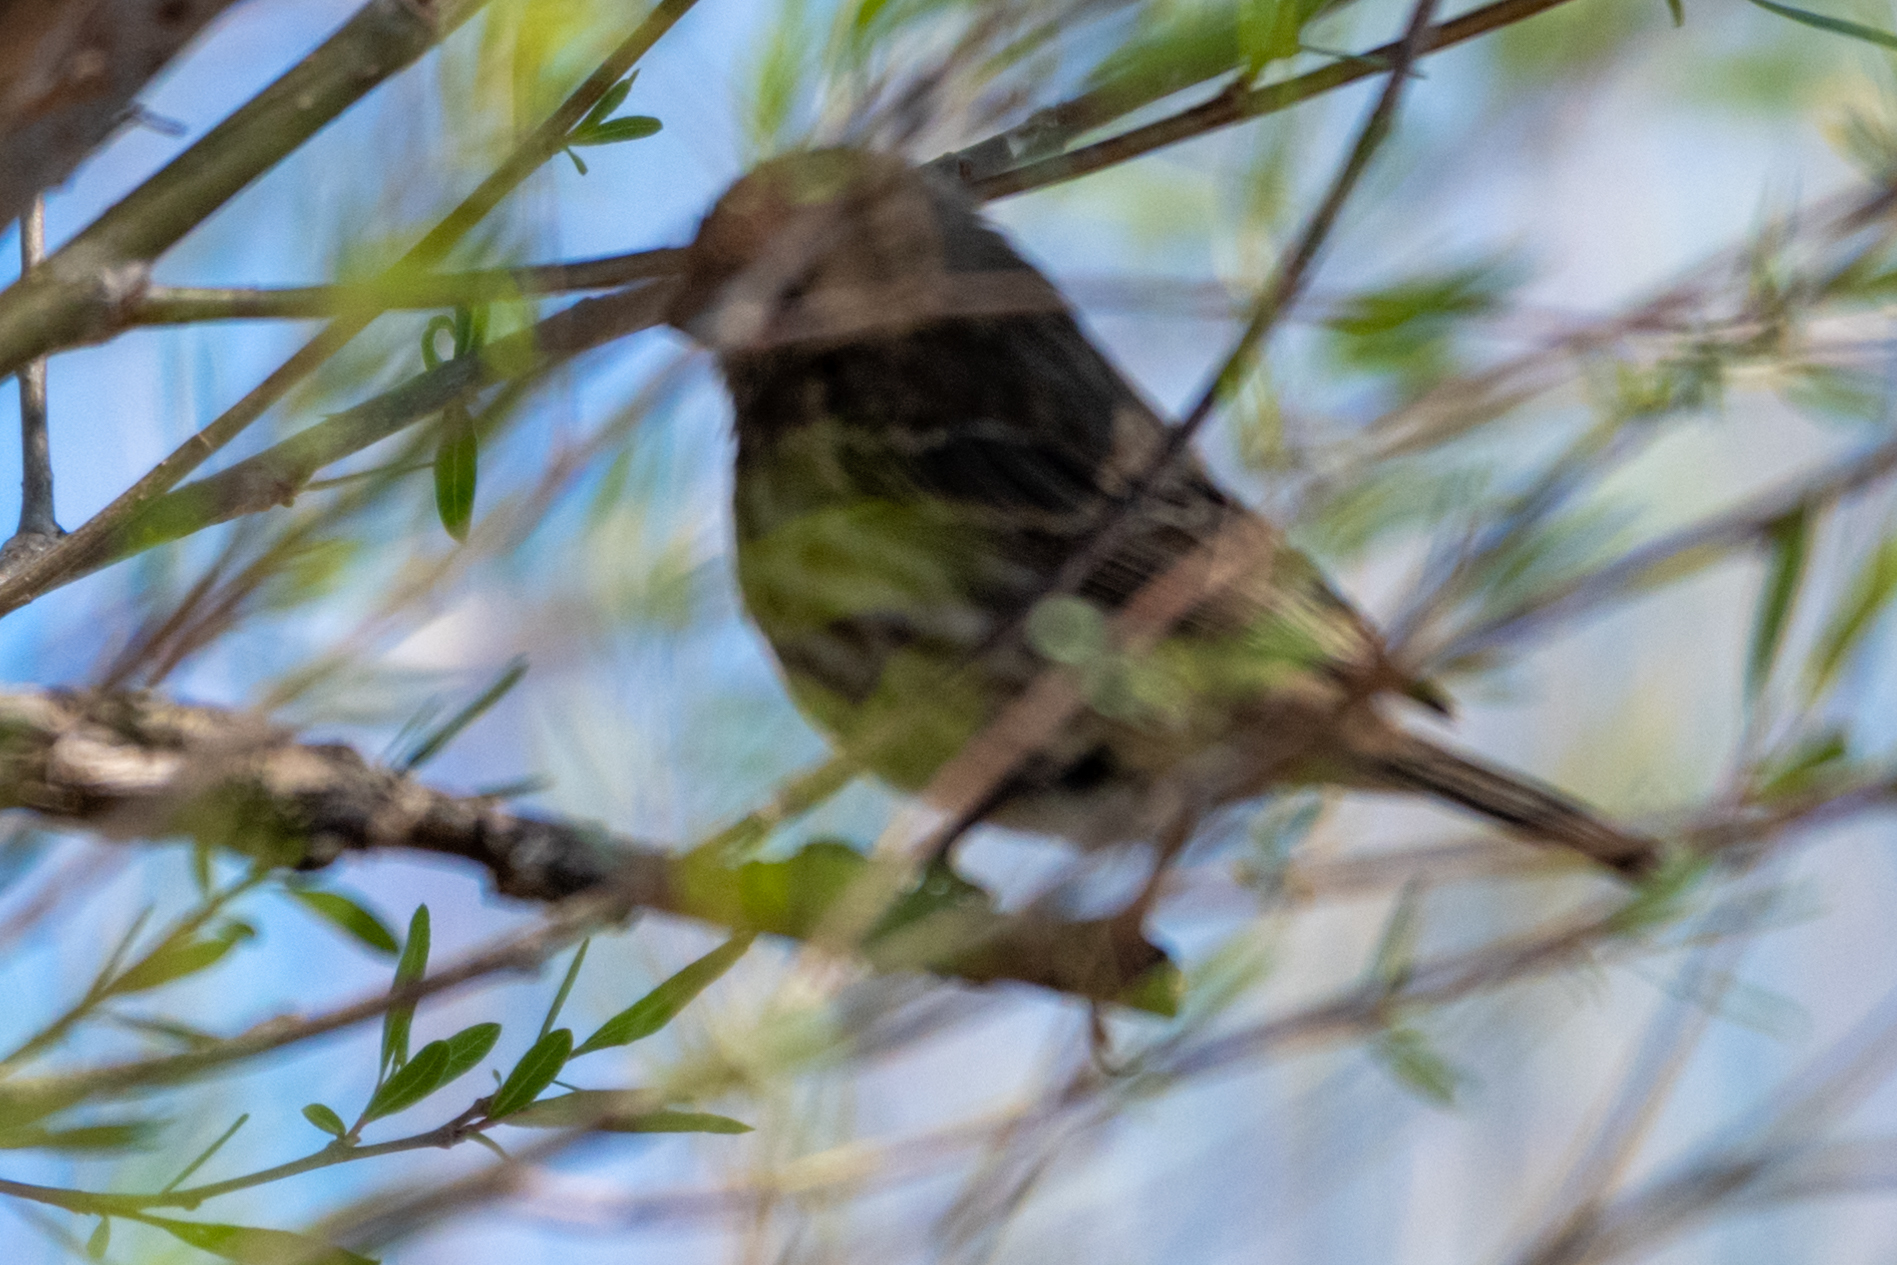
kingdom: Animalia
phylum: Chordata
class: Aves
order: Passeriformes
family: Fringillidae
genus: Haemorhous
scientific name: Haemorhous mexicanus
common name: House finch
